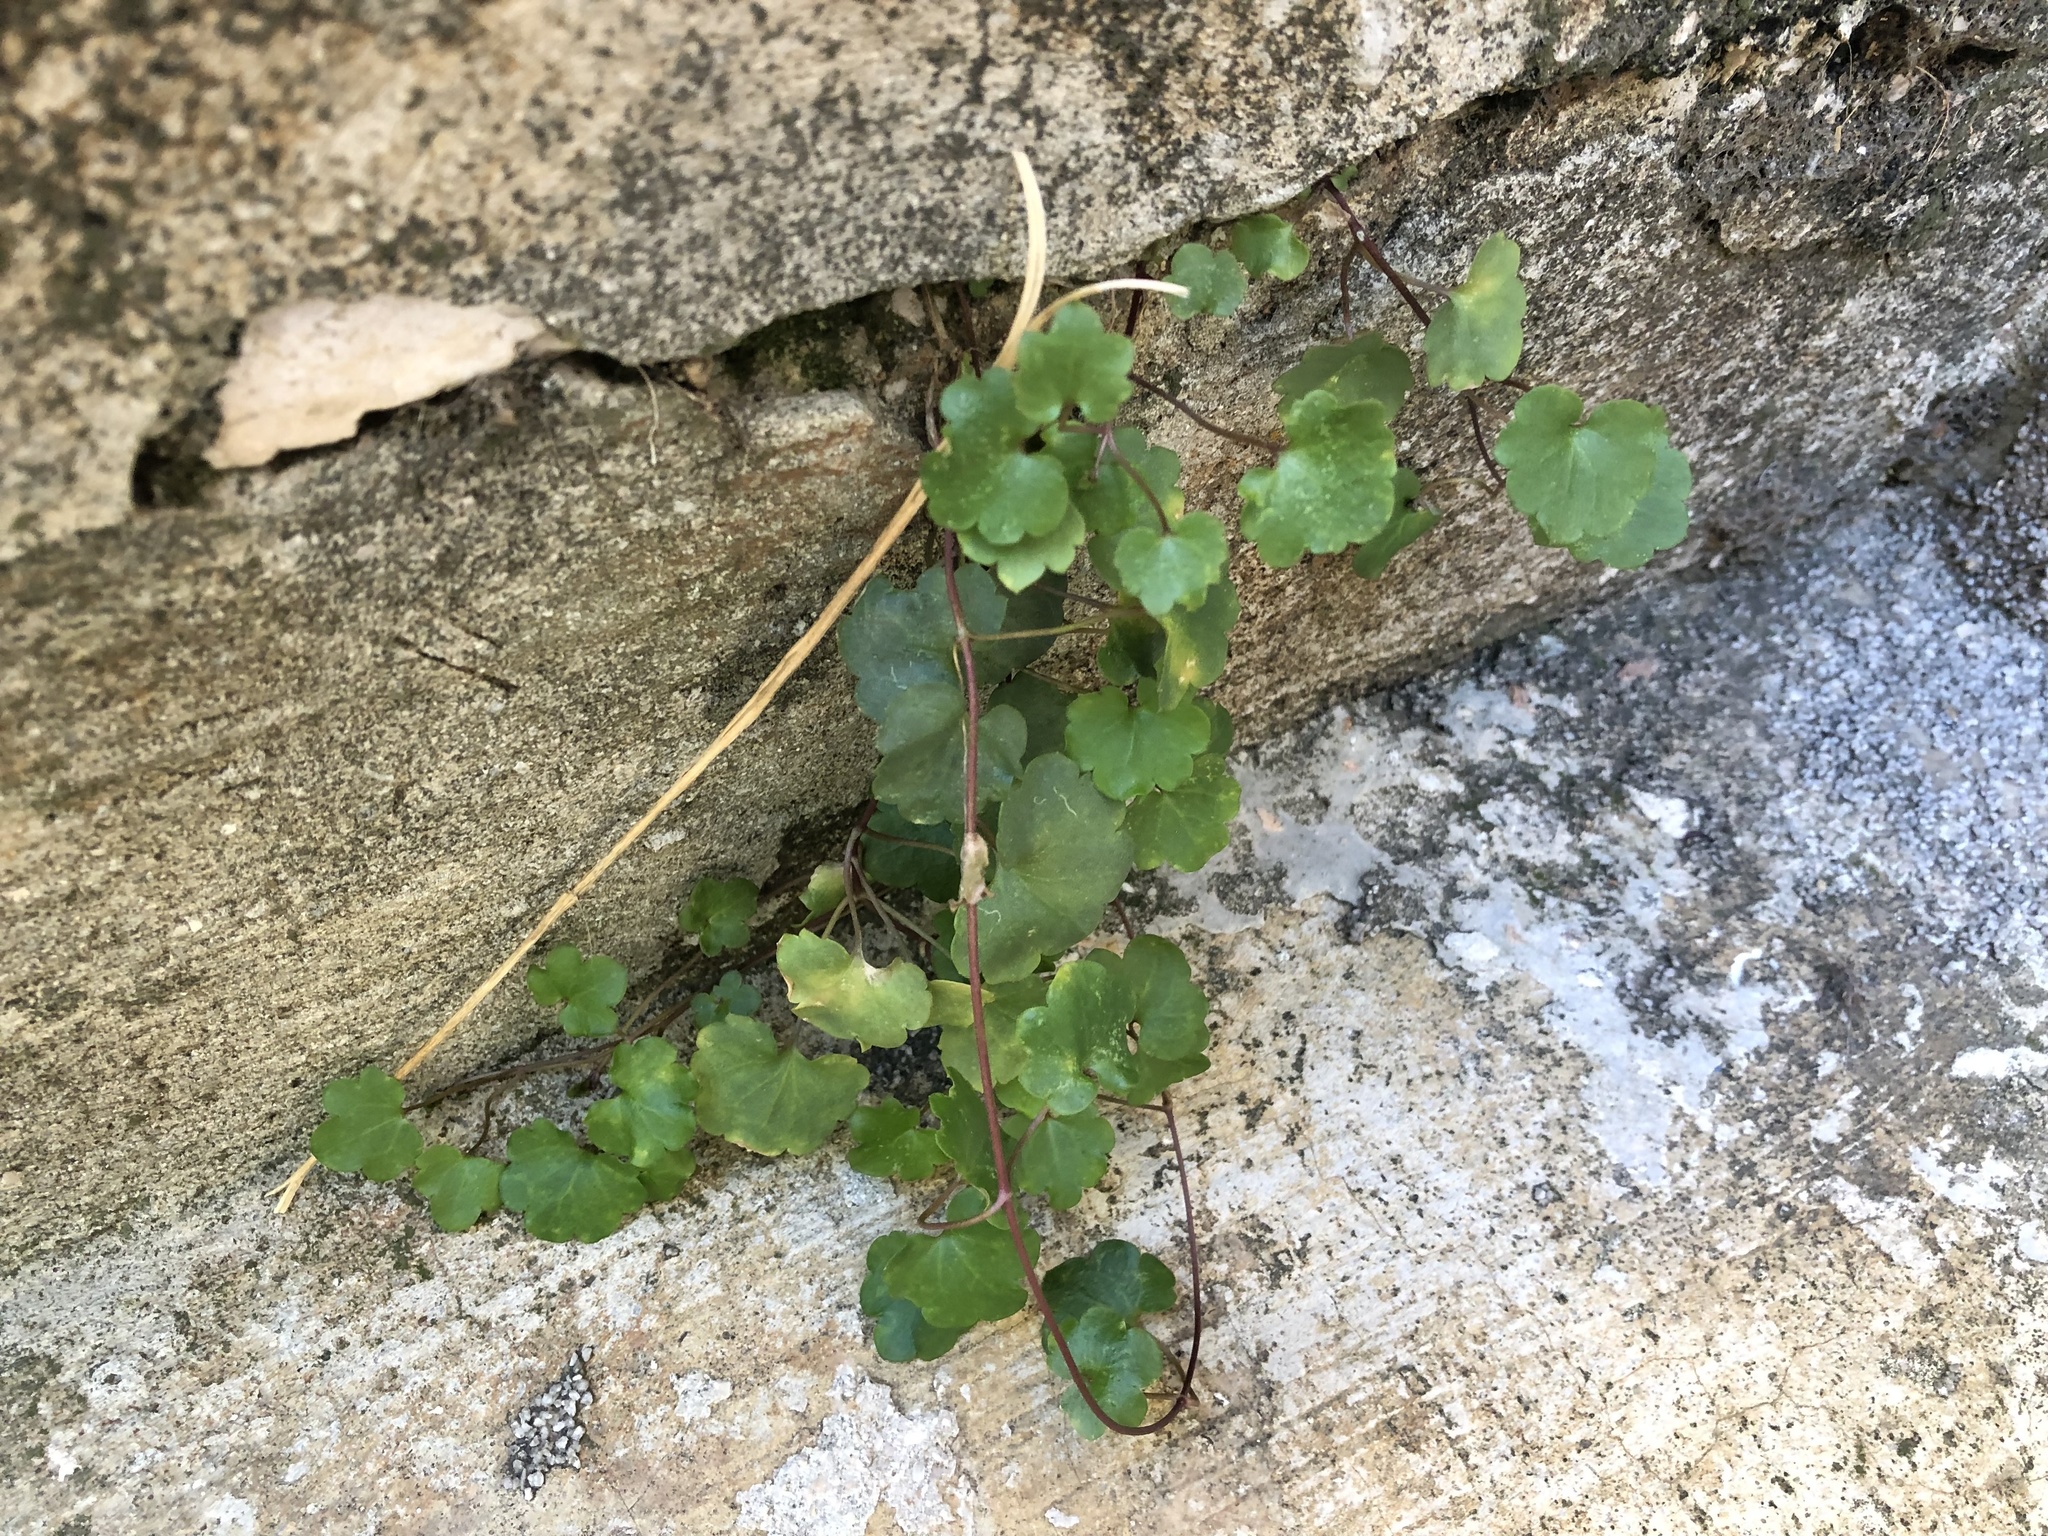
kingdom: Plantae
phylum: Tracheophyta
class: Magnoliopsida
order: Lamiales
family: Plantaginaceae
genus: Cymbalaria
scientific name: Cymbalaria muralis
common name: Ivy-leaved toadflax
